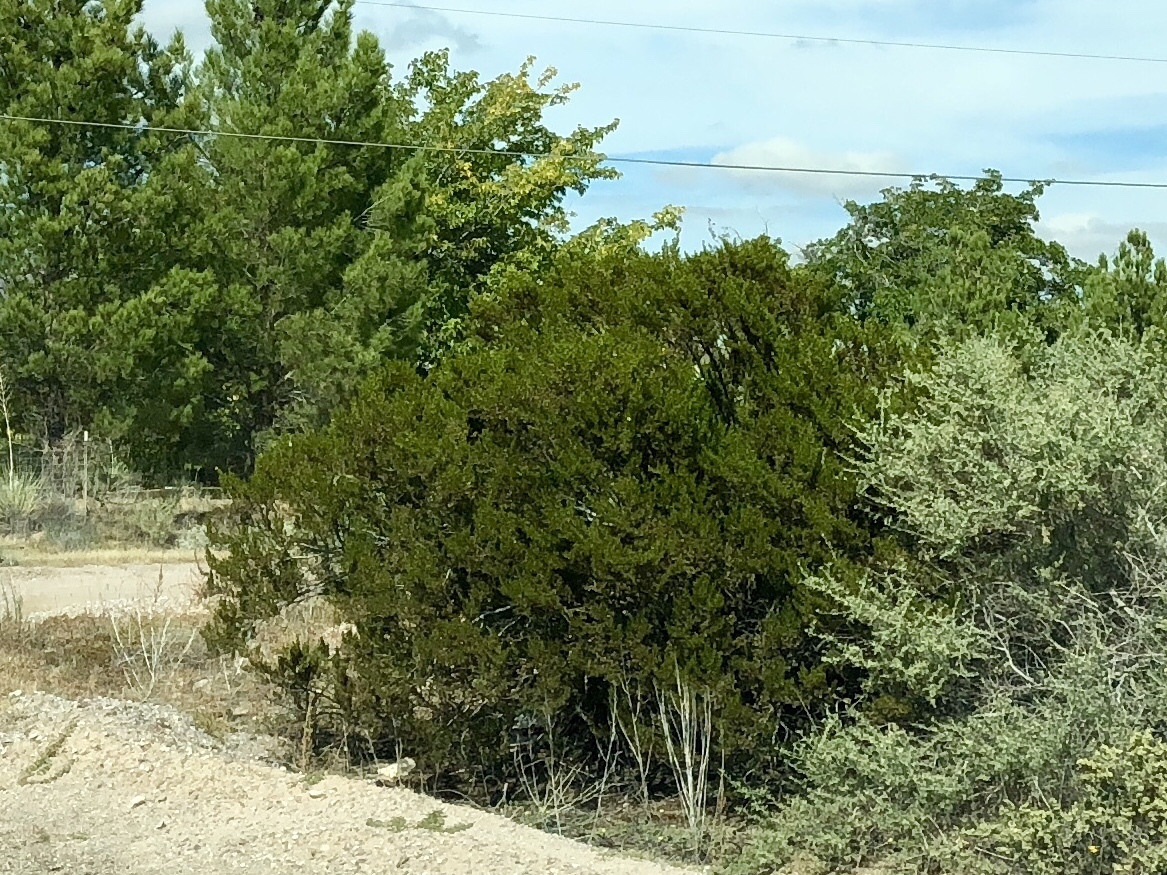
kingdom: Plantae
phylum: Tracheophyta
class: Magnoliopsida
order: Zygophyllales
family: Zygophyllaceae
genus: Larrea
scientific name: Larrea tridentata
